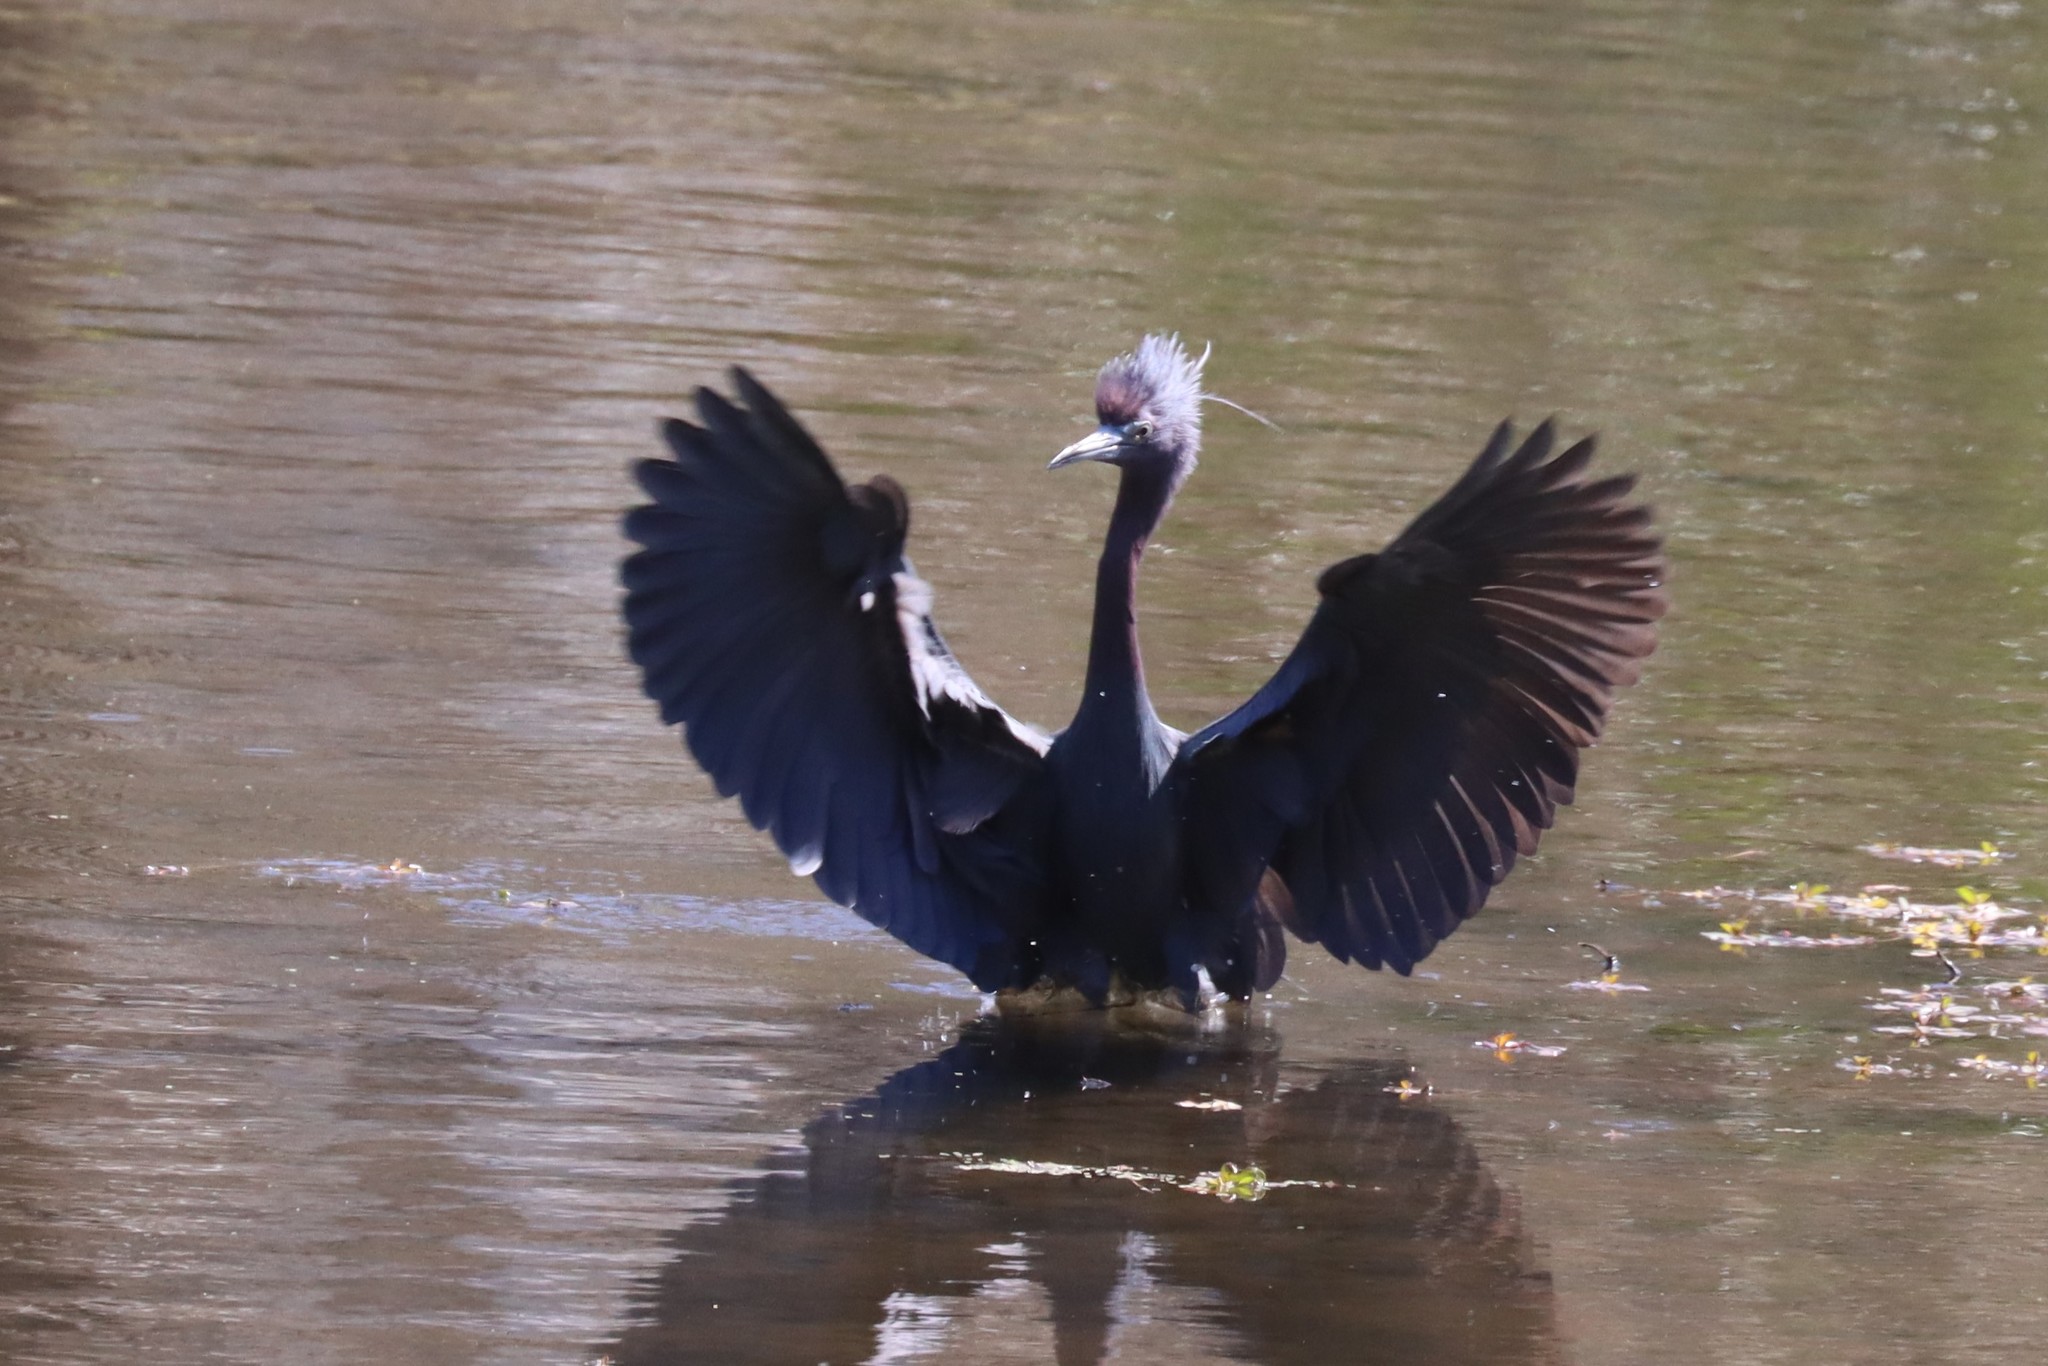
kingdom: Animalia
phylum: Chordata
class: Aves
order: Pelecaniformes
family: Ardeidae
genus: Egretta
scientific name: Egretta caerulea
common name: Little blue heron
